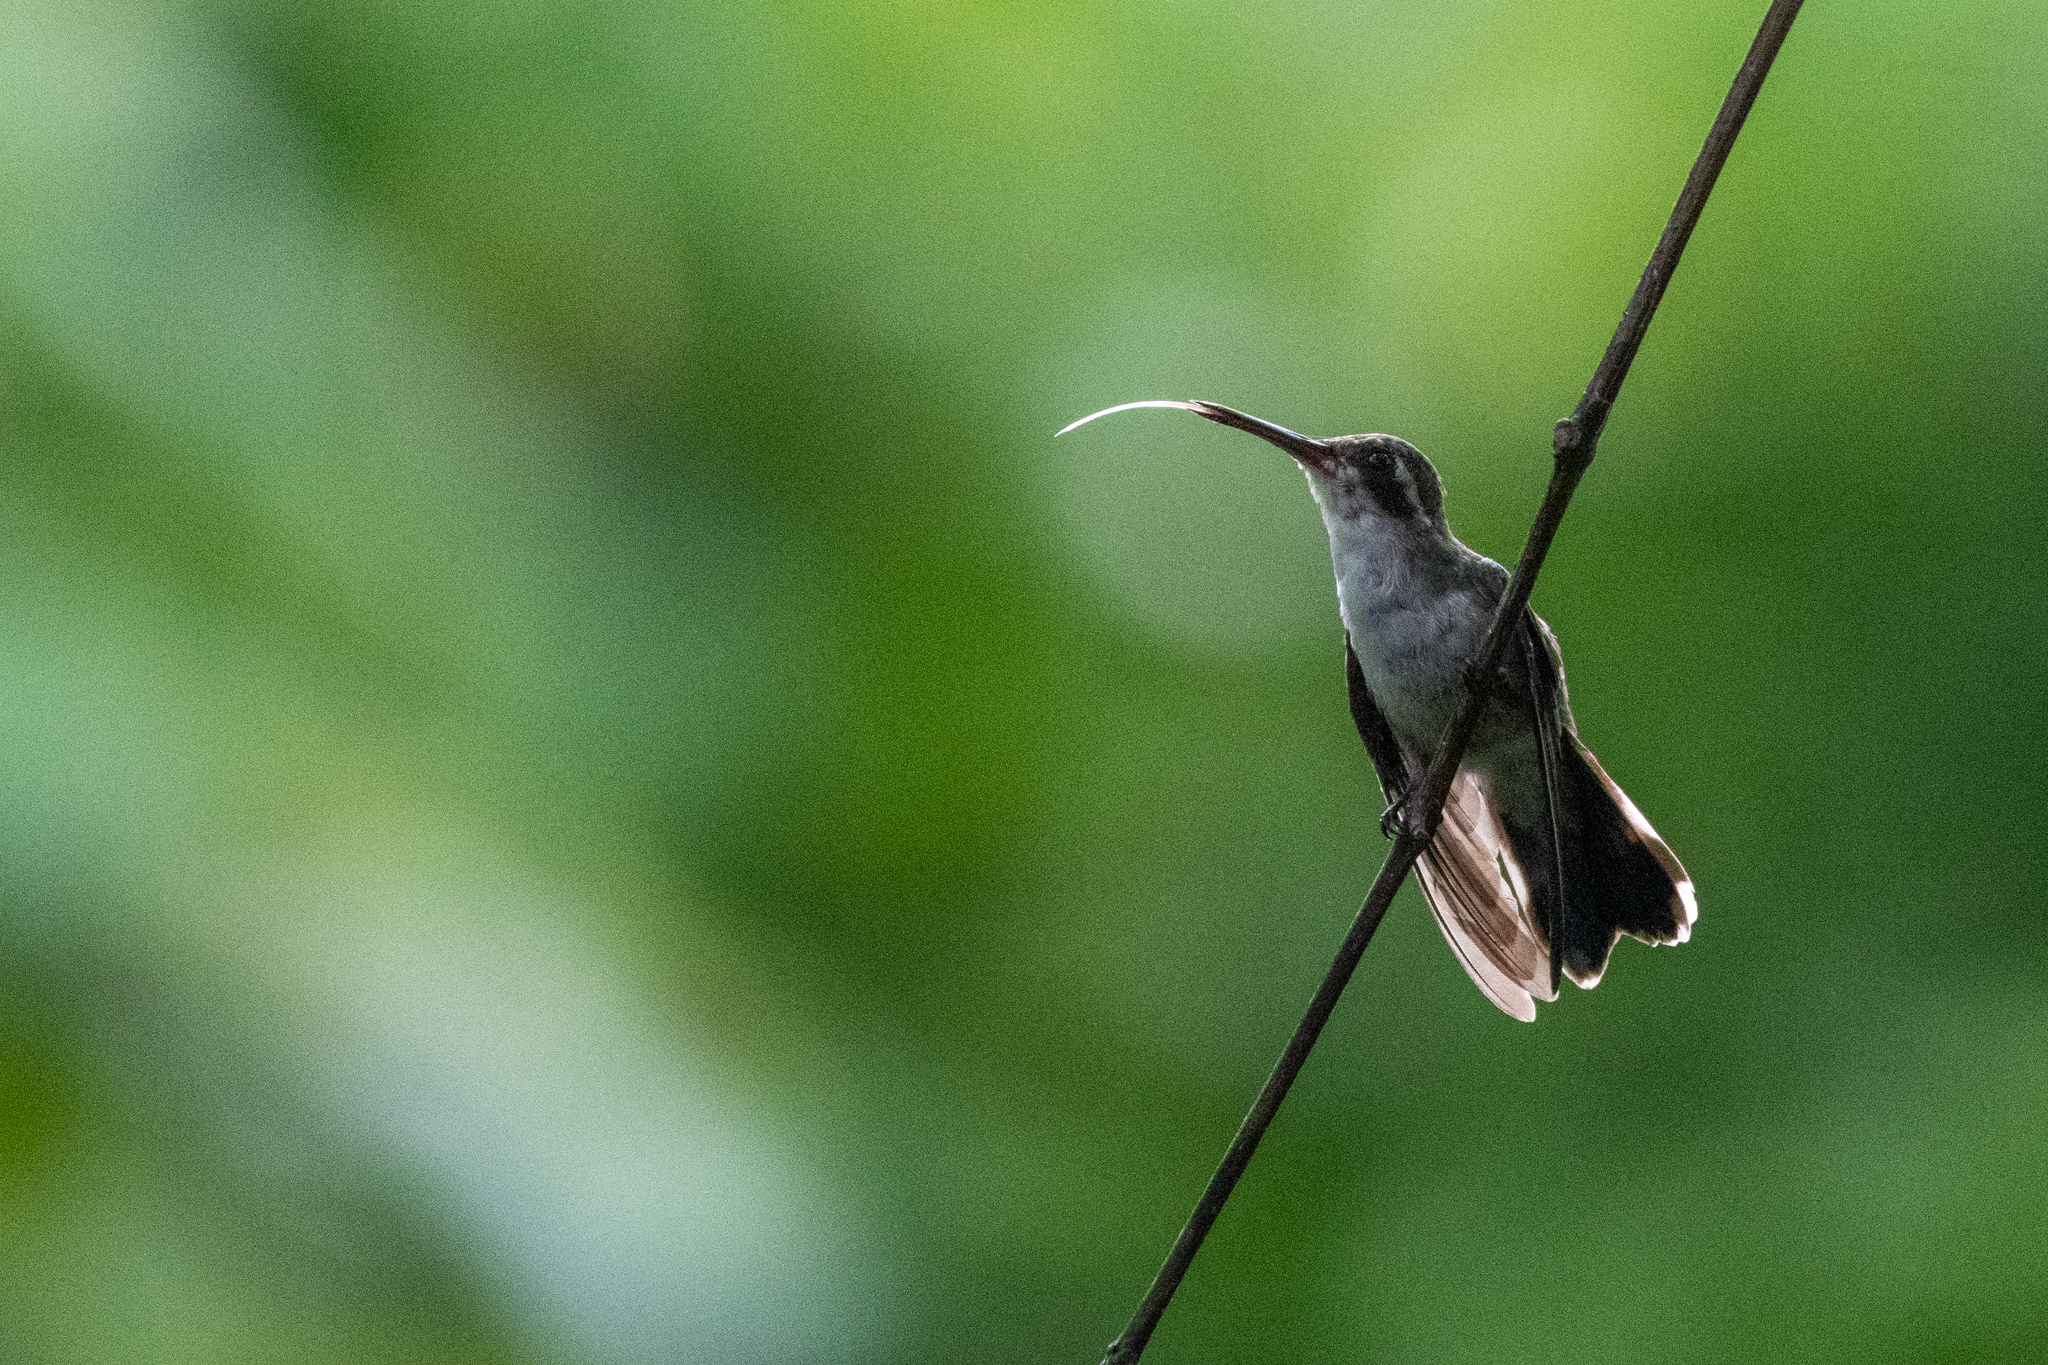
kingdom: Animalia
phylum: Chordata
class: Aves
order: Apodiformes
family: Trochilidae
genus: Cynanthus
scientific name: Cynanthus canivetii
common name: Canivet's emerald
